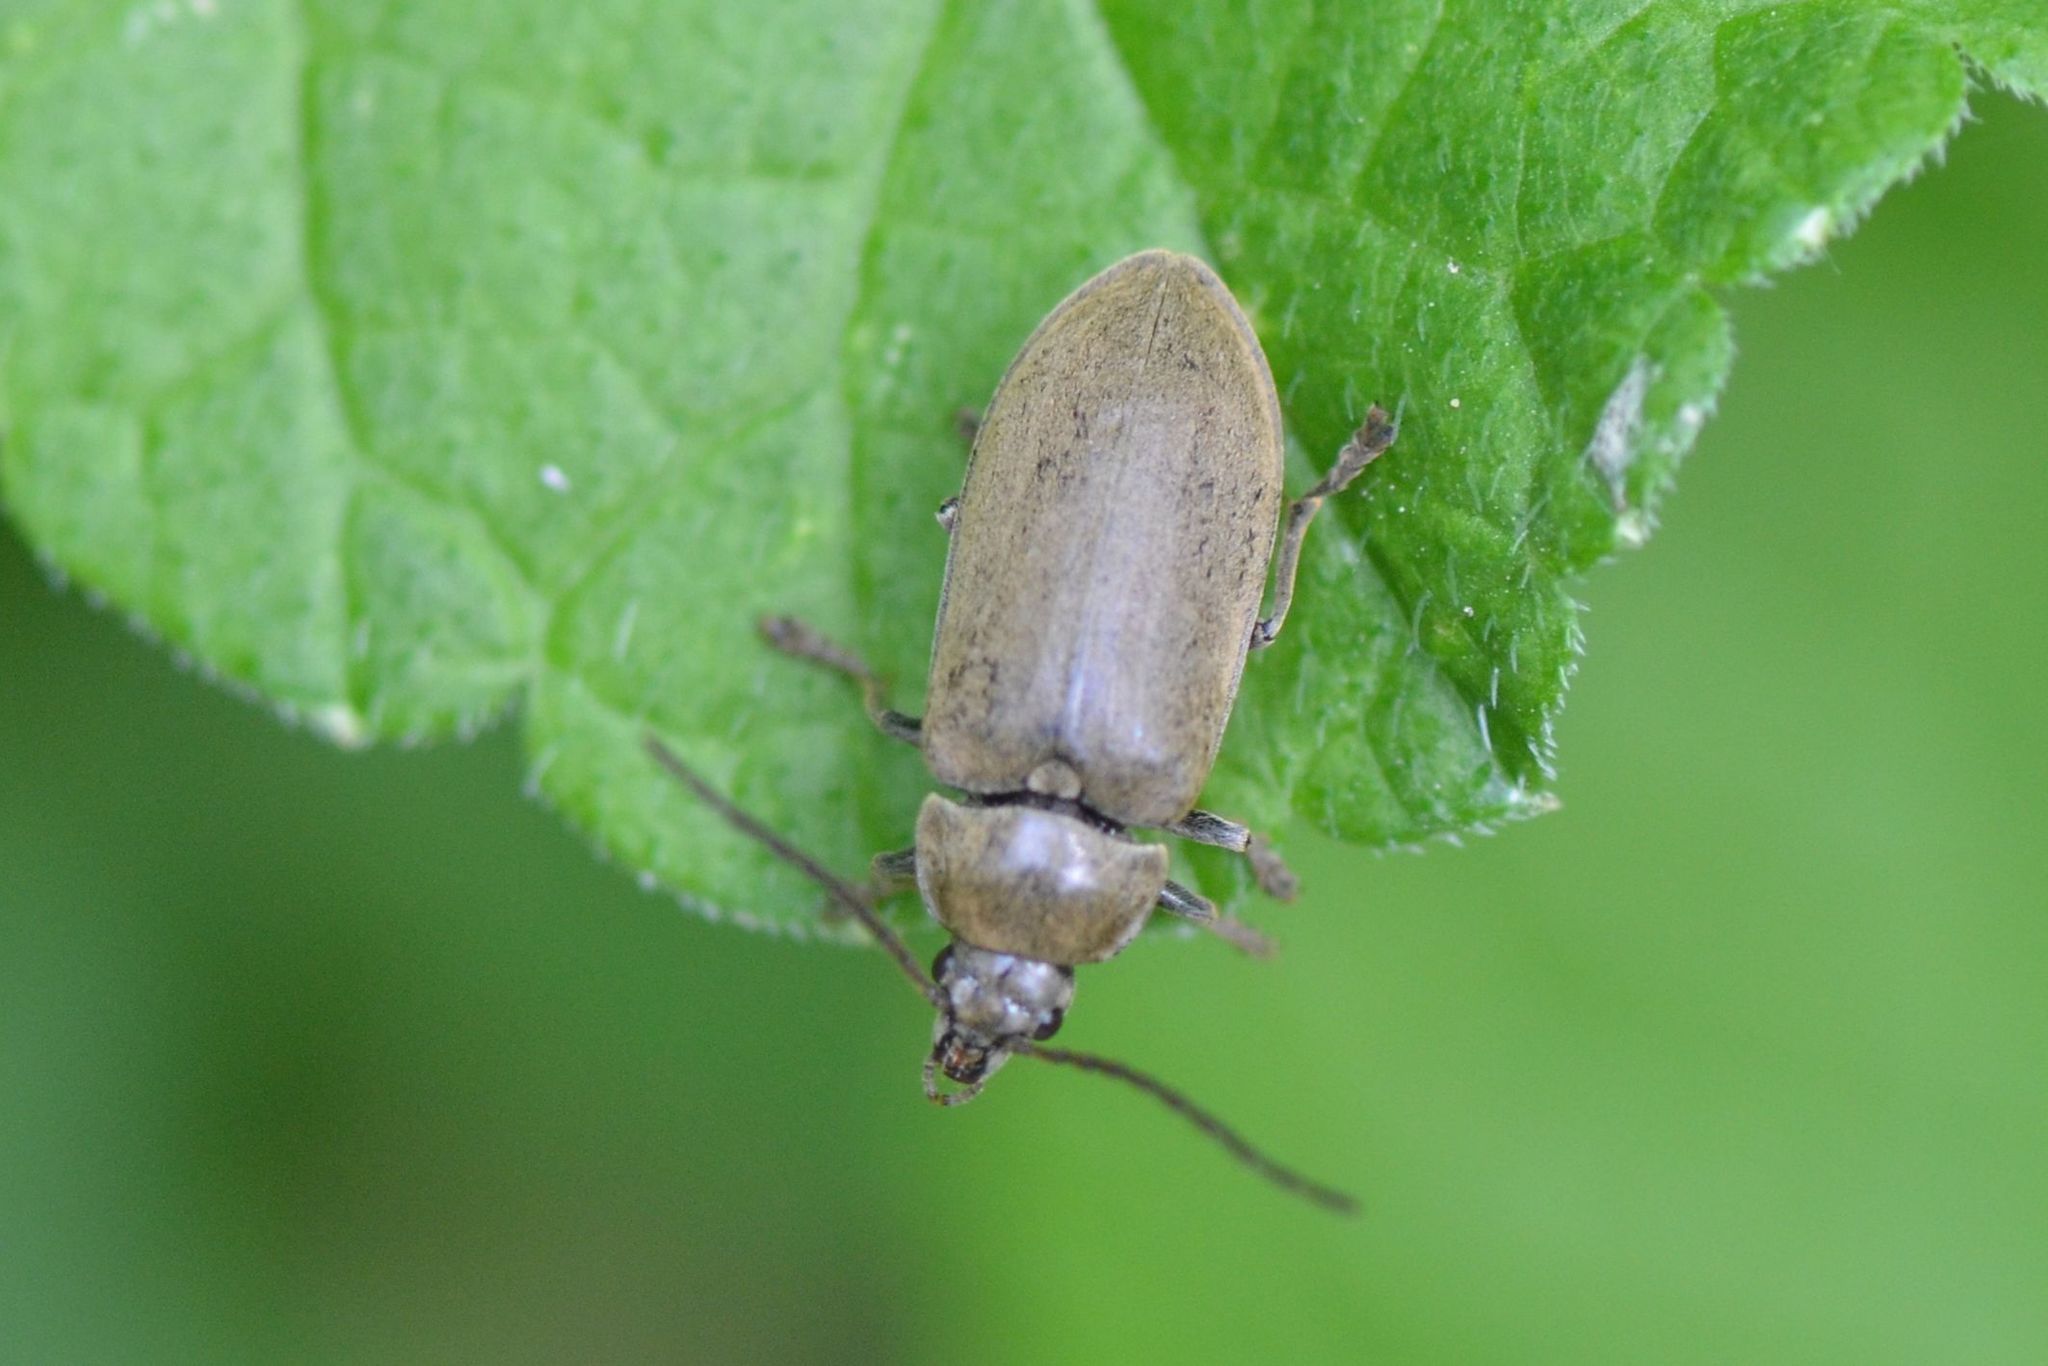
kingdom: Animalia
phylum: Arthropoda
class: Insecta
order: Coleoptera
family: Dascillidae
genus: Dascillus
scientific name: Dascillus cervinus
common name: Orchid beetle
